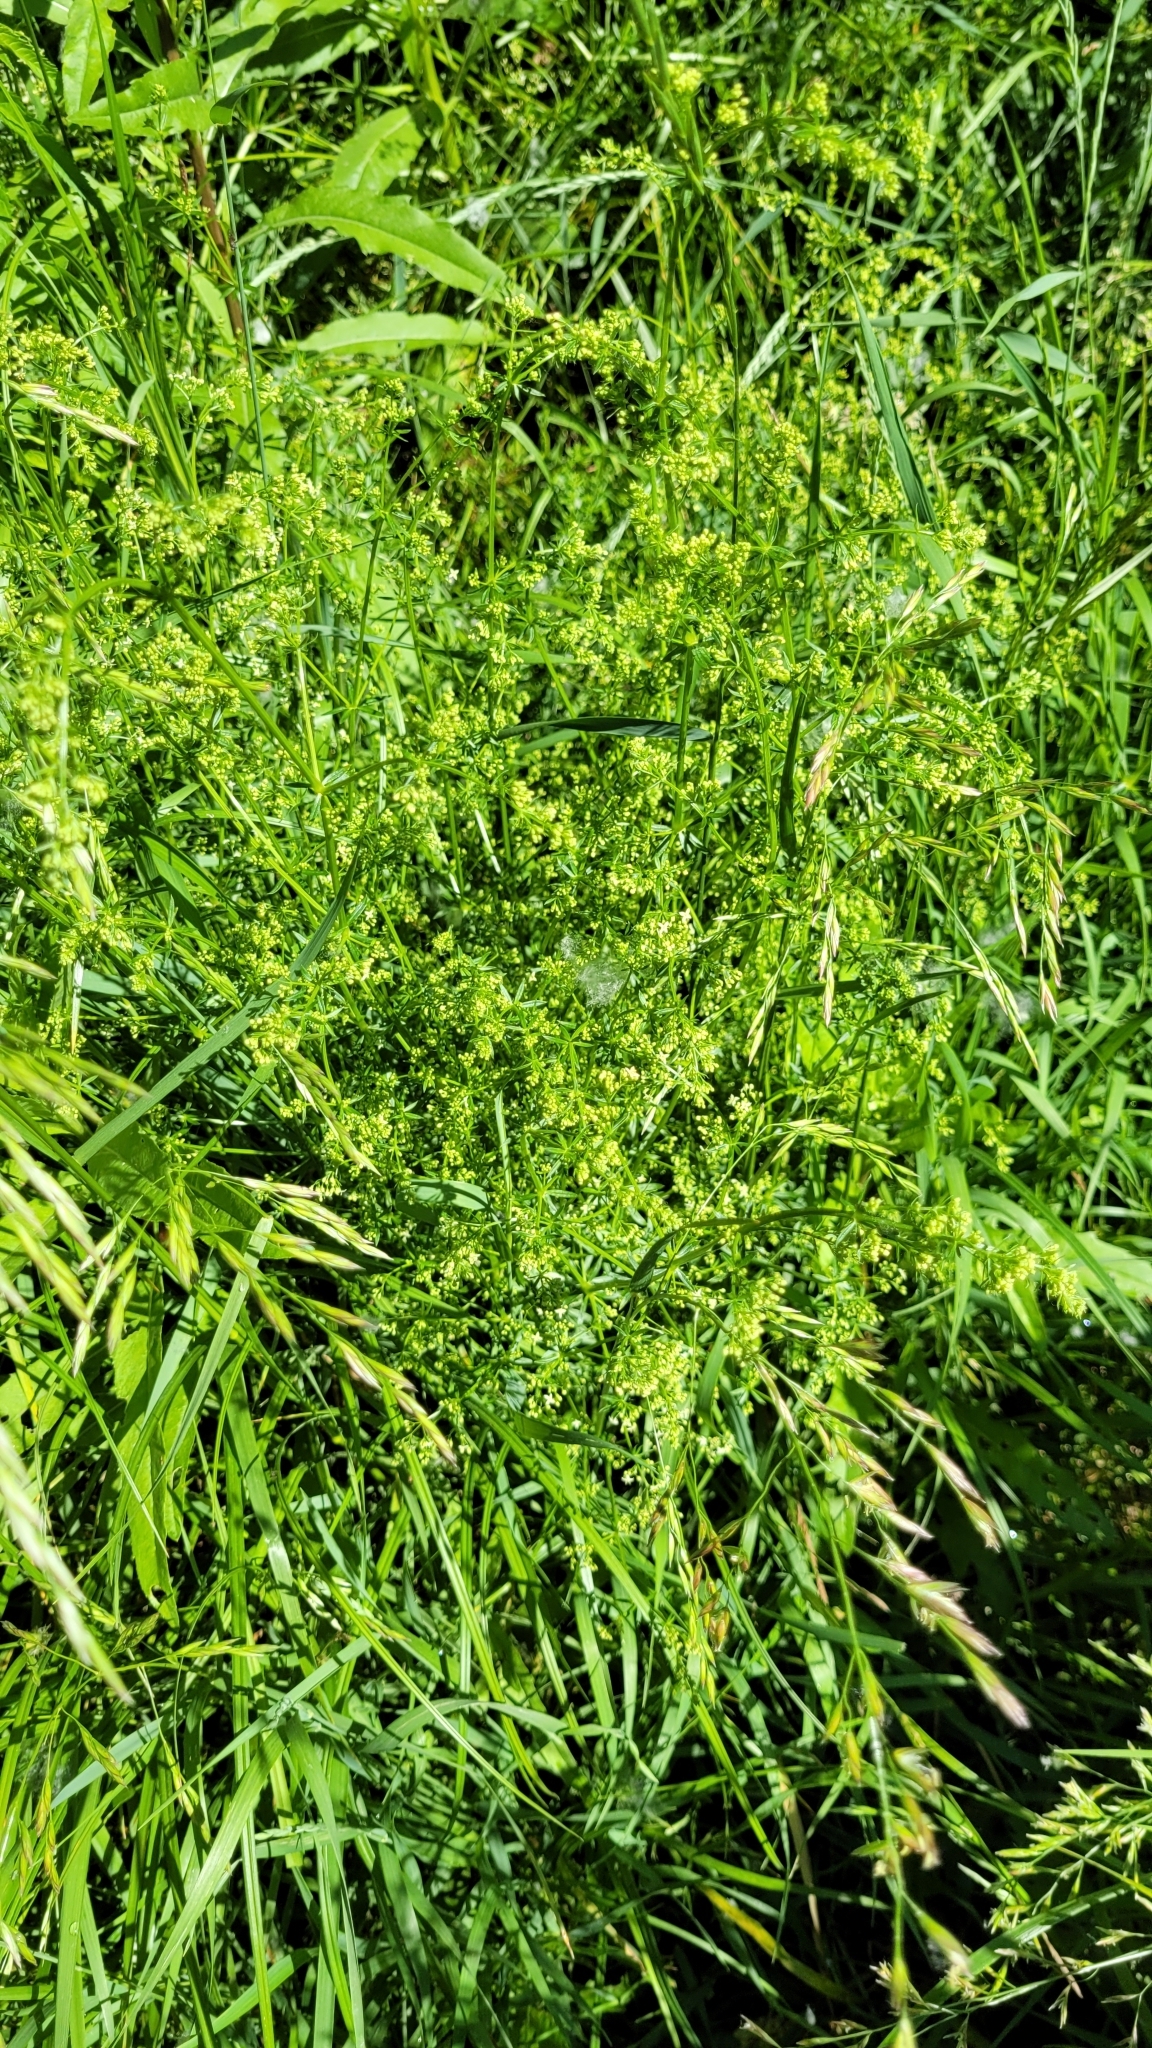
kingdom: Plantae
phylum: Tracheophyta
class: Magnoliopsida
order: Gentianales
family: Rubiaceae
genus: Galium
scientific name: Galium mollugo
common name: Hedge bedstraw
